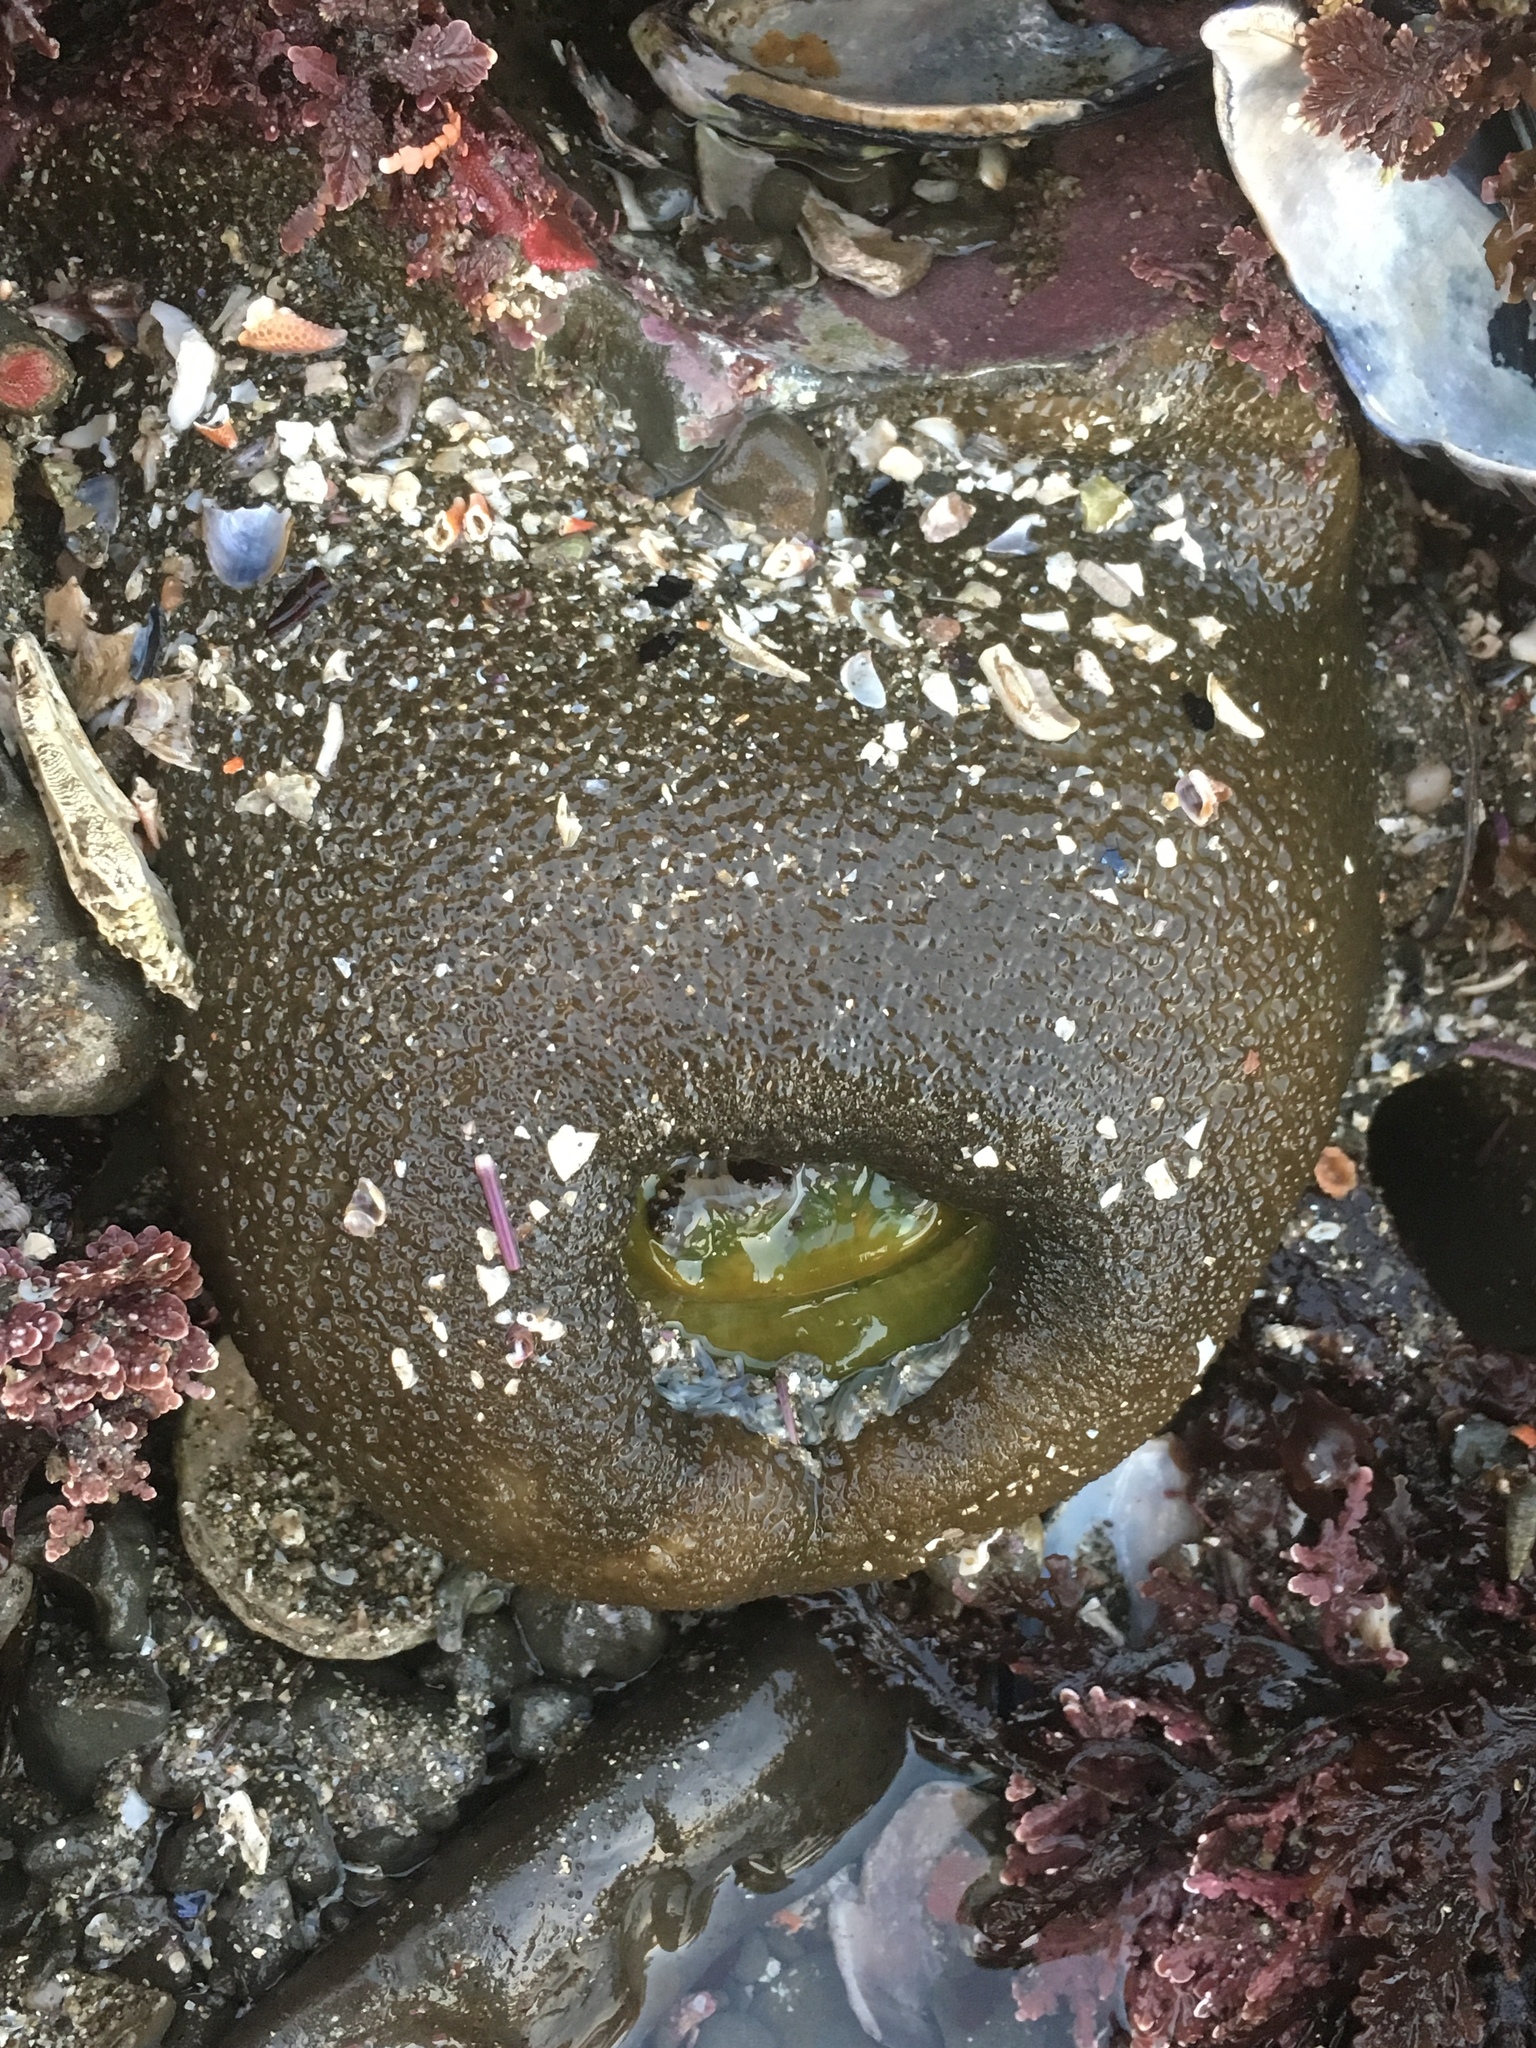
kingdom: Animalia
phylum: Cnidaria
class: Anthozoa
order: Actiniaria
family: Actiniidae
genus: Anthopleura
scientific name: Anthopleura xanthogrammica
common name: Giant green anemone
